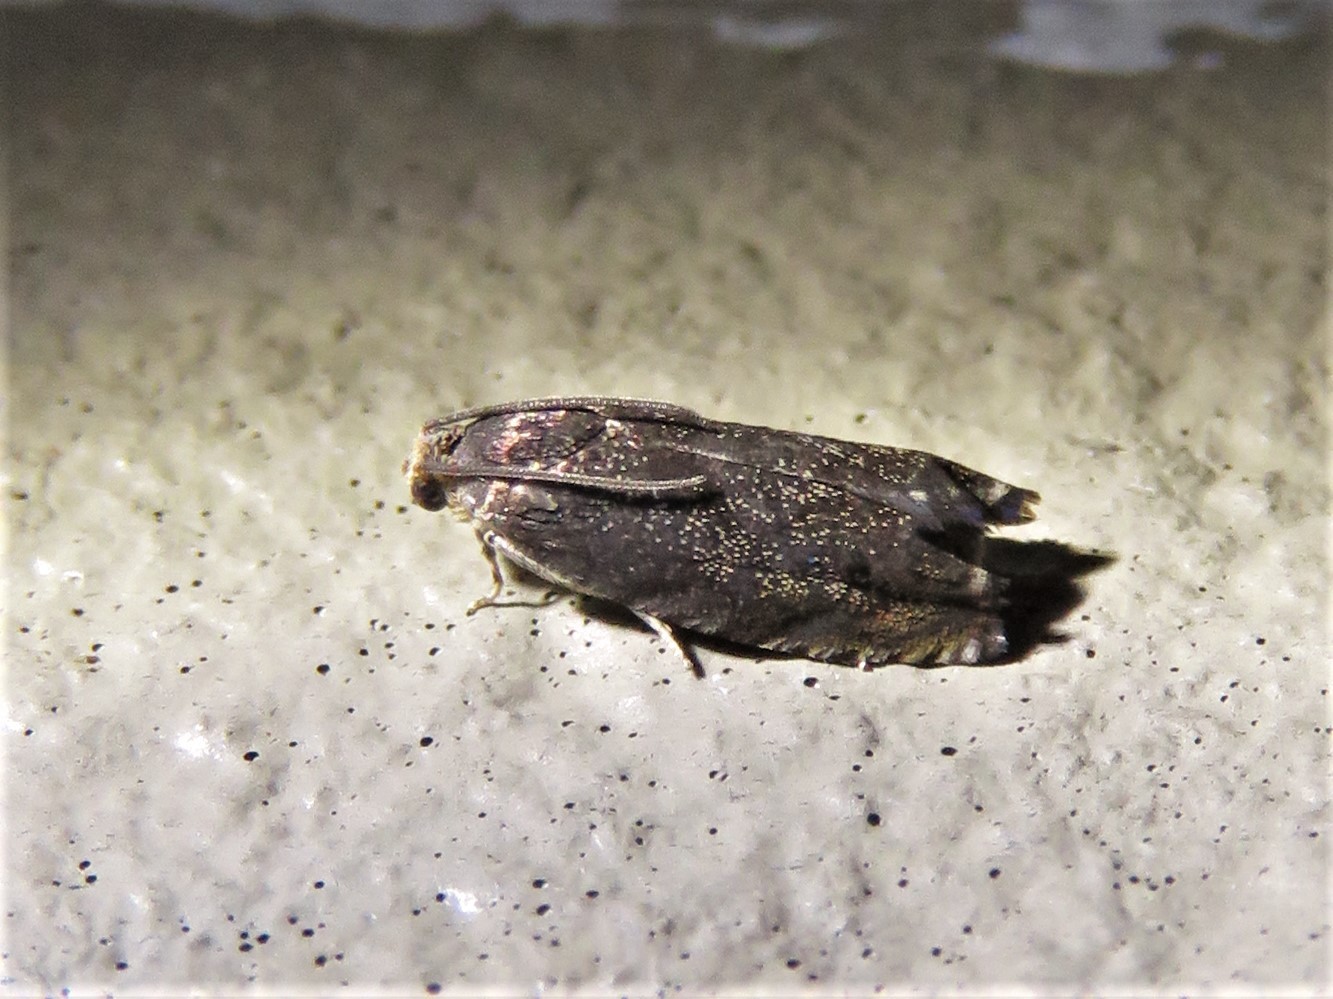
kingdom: Animalia
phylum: Arthropoda
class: Insecta
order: Lepidoptera
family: Tortricidae
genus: Cydia
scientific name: Cydia caryana
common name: Hickory shuckworm moth
